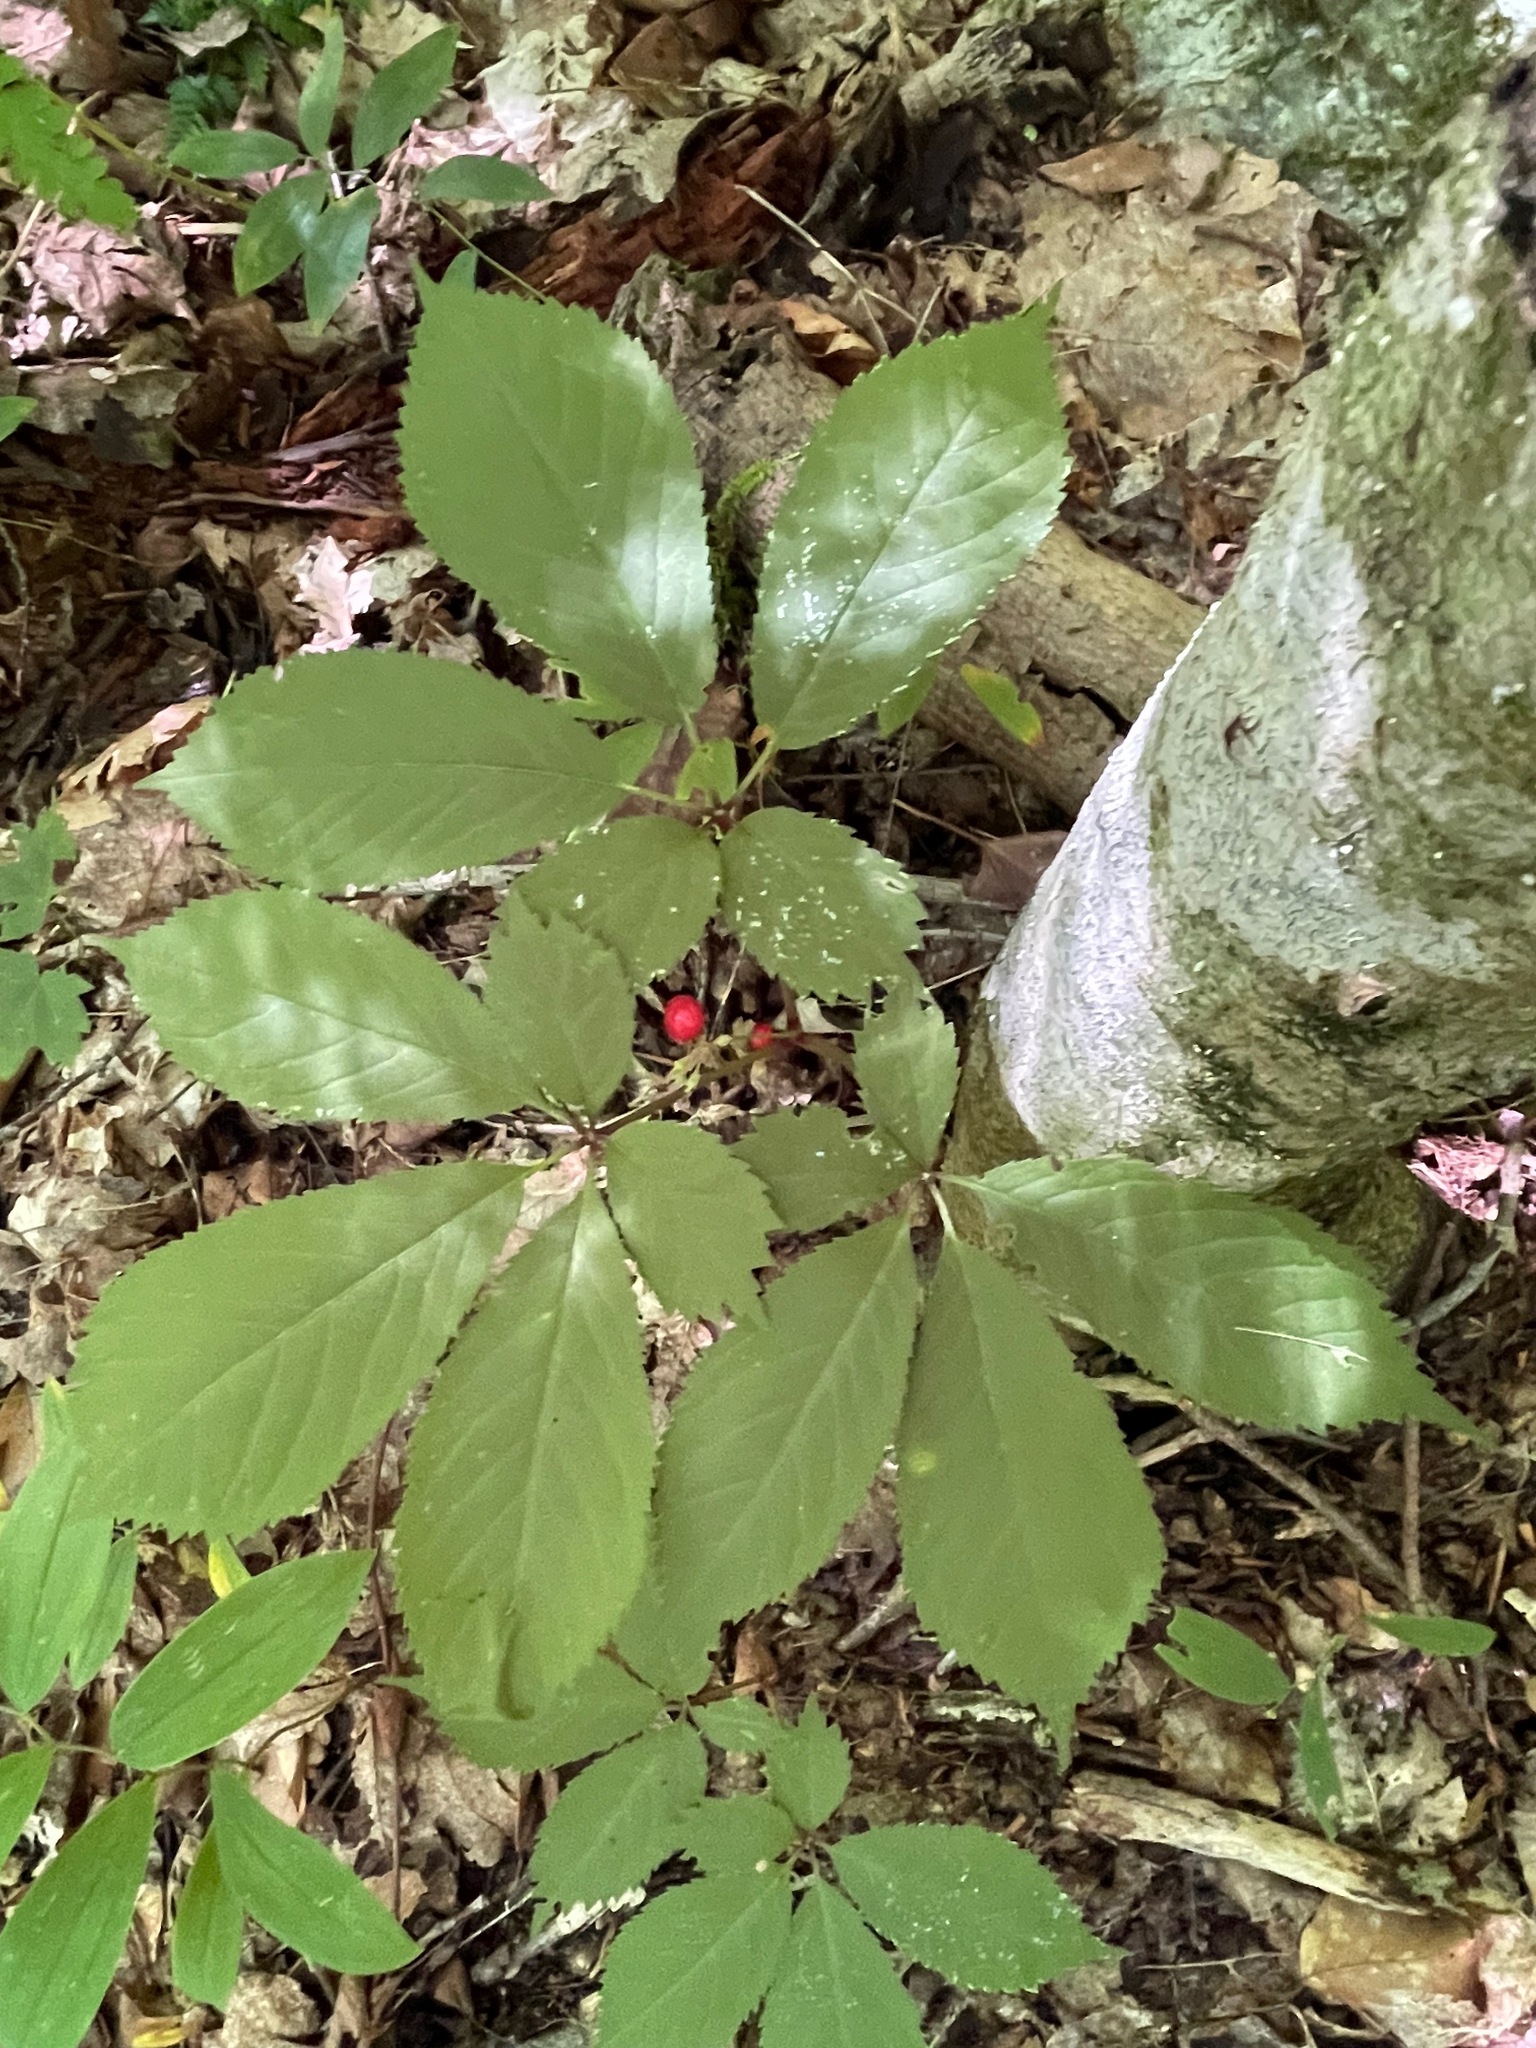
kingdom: Plantae
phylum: Tracheophyta
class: Magnoliopsida
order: Apiales
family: Araliaceae
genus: Panax
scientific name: Panax quinquefolius
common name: American ginseng
